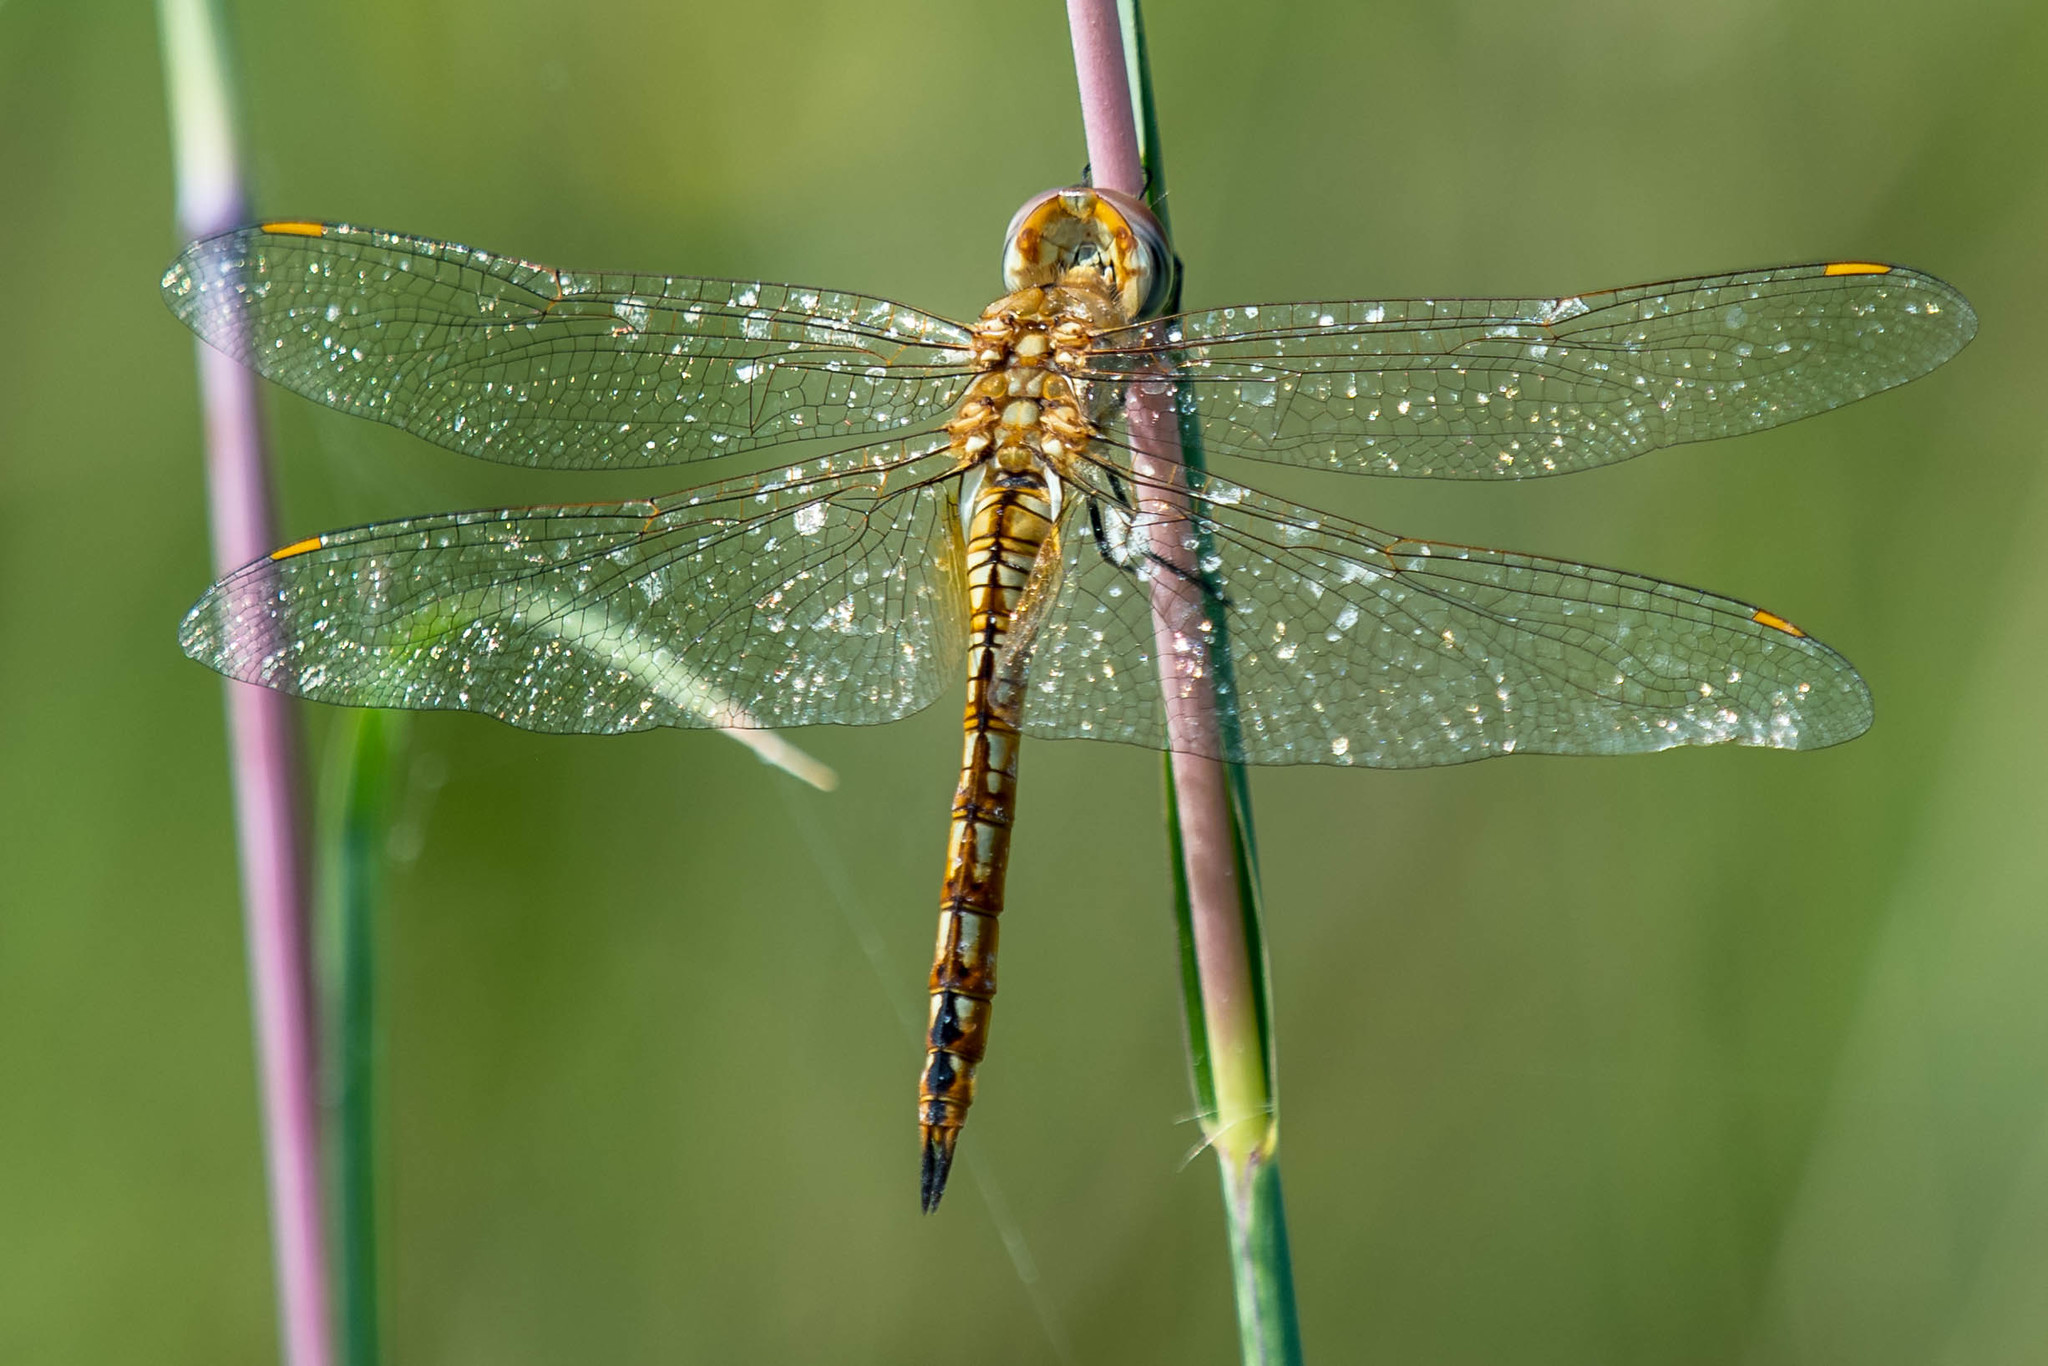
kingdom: Animalia
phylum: Arthropoda
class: Insecta
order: Odonata
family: Libellulidae
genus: Pantala
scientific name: Pantala flavescens
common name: Wandering glider
